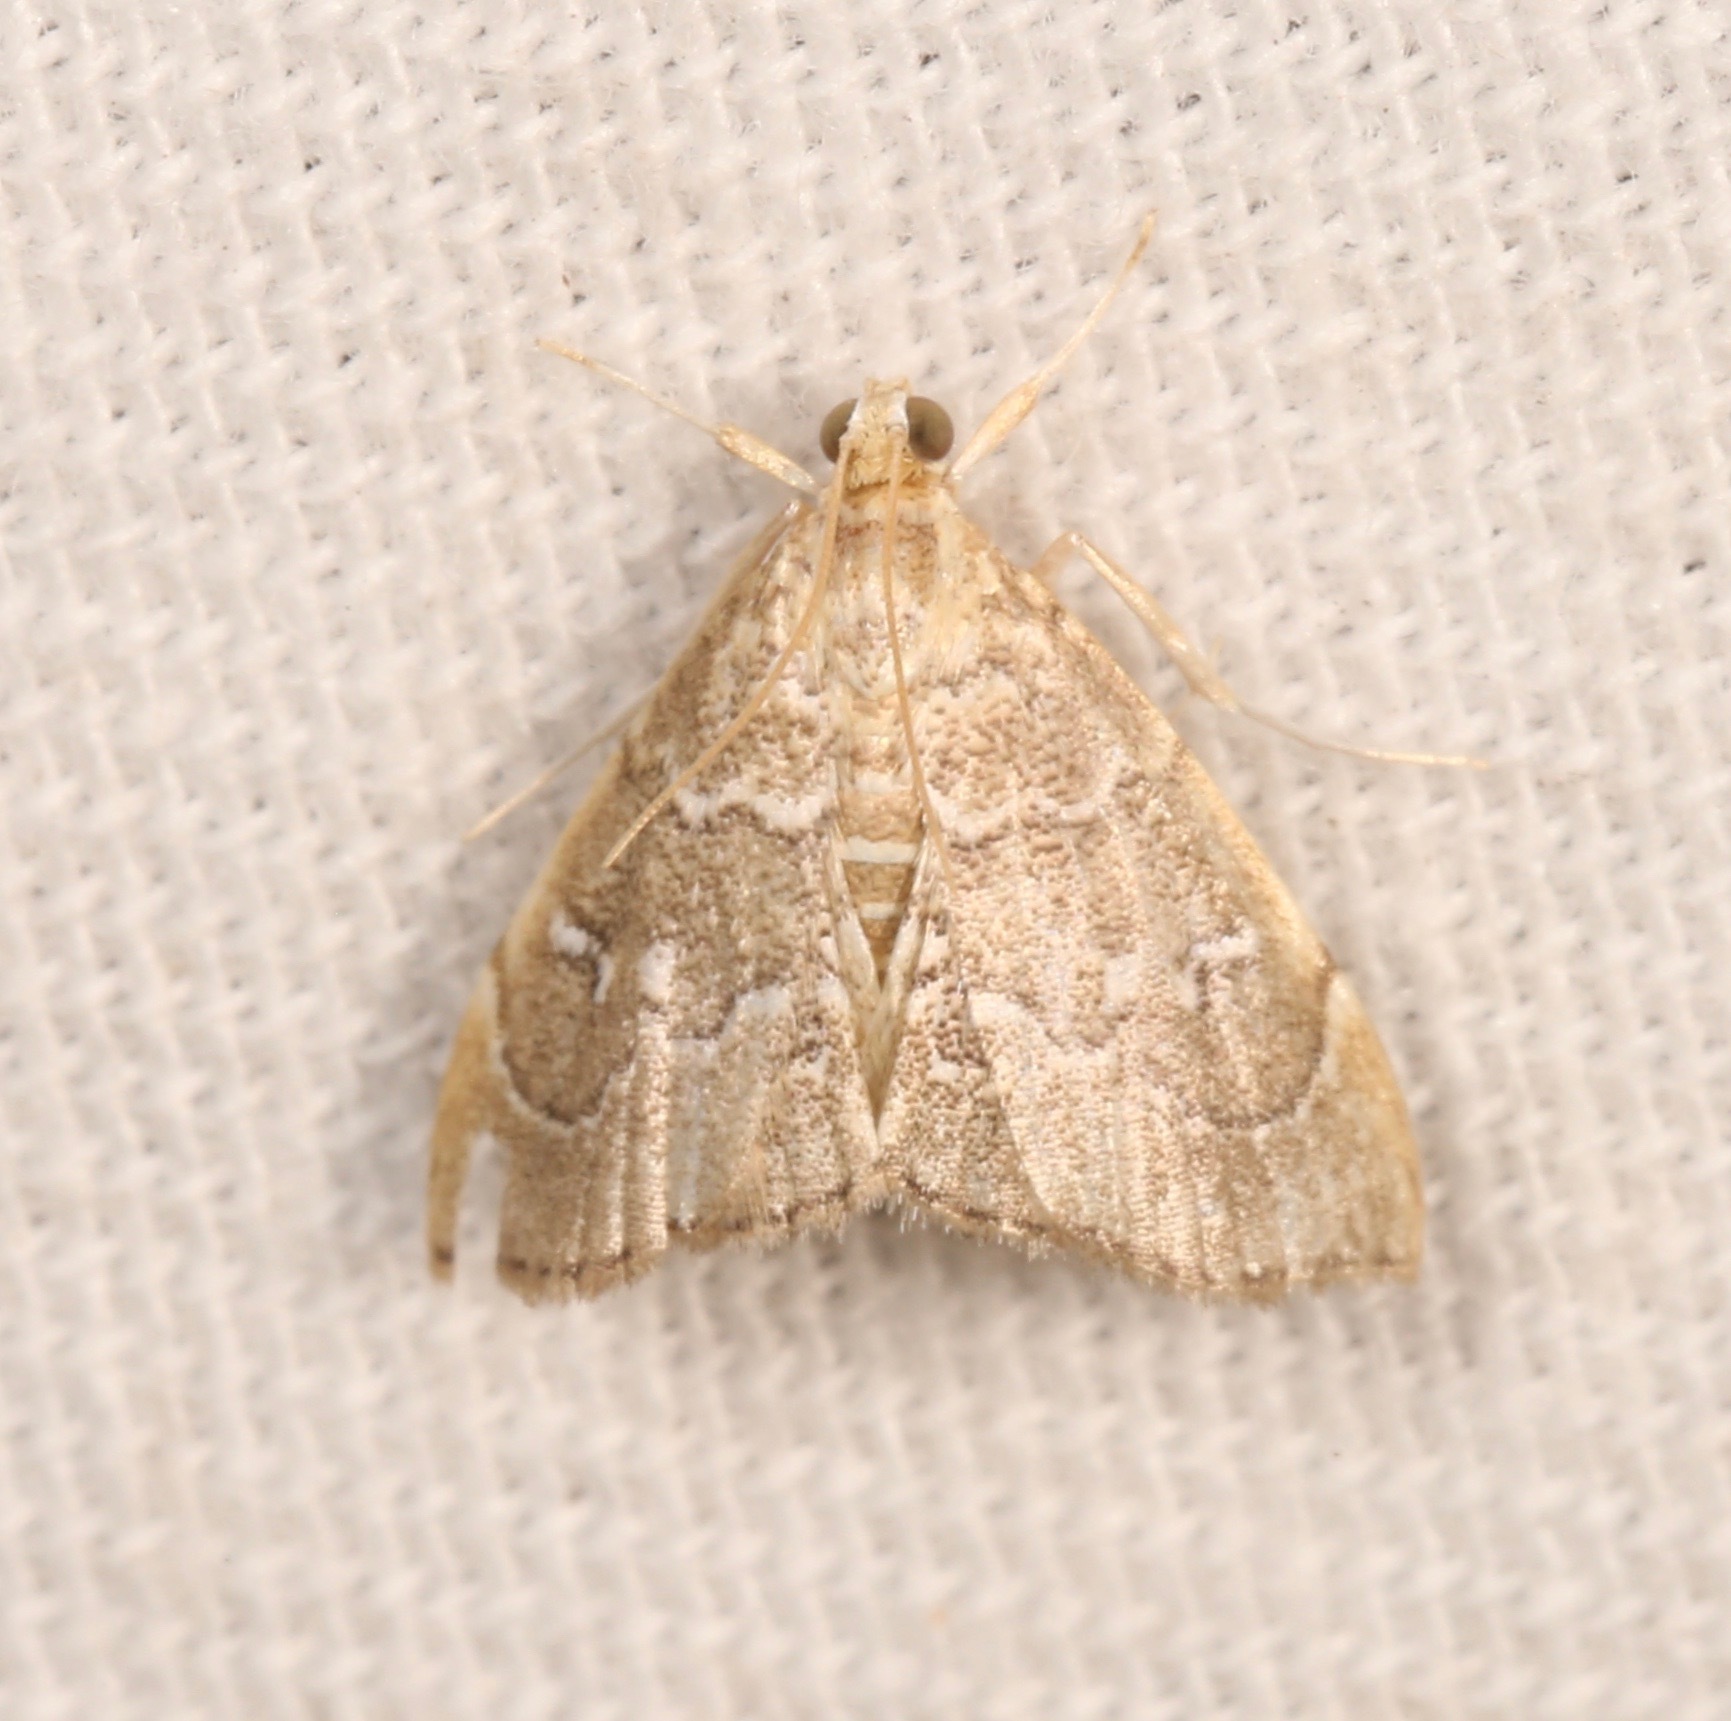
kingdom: Animalia
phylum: Arthropoda
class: Insecta
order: Lepidoptera
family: Crambidae
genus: Nephrogramma
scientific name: Nephrogramma separata
